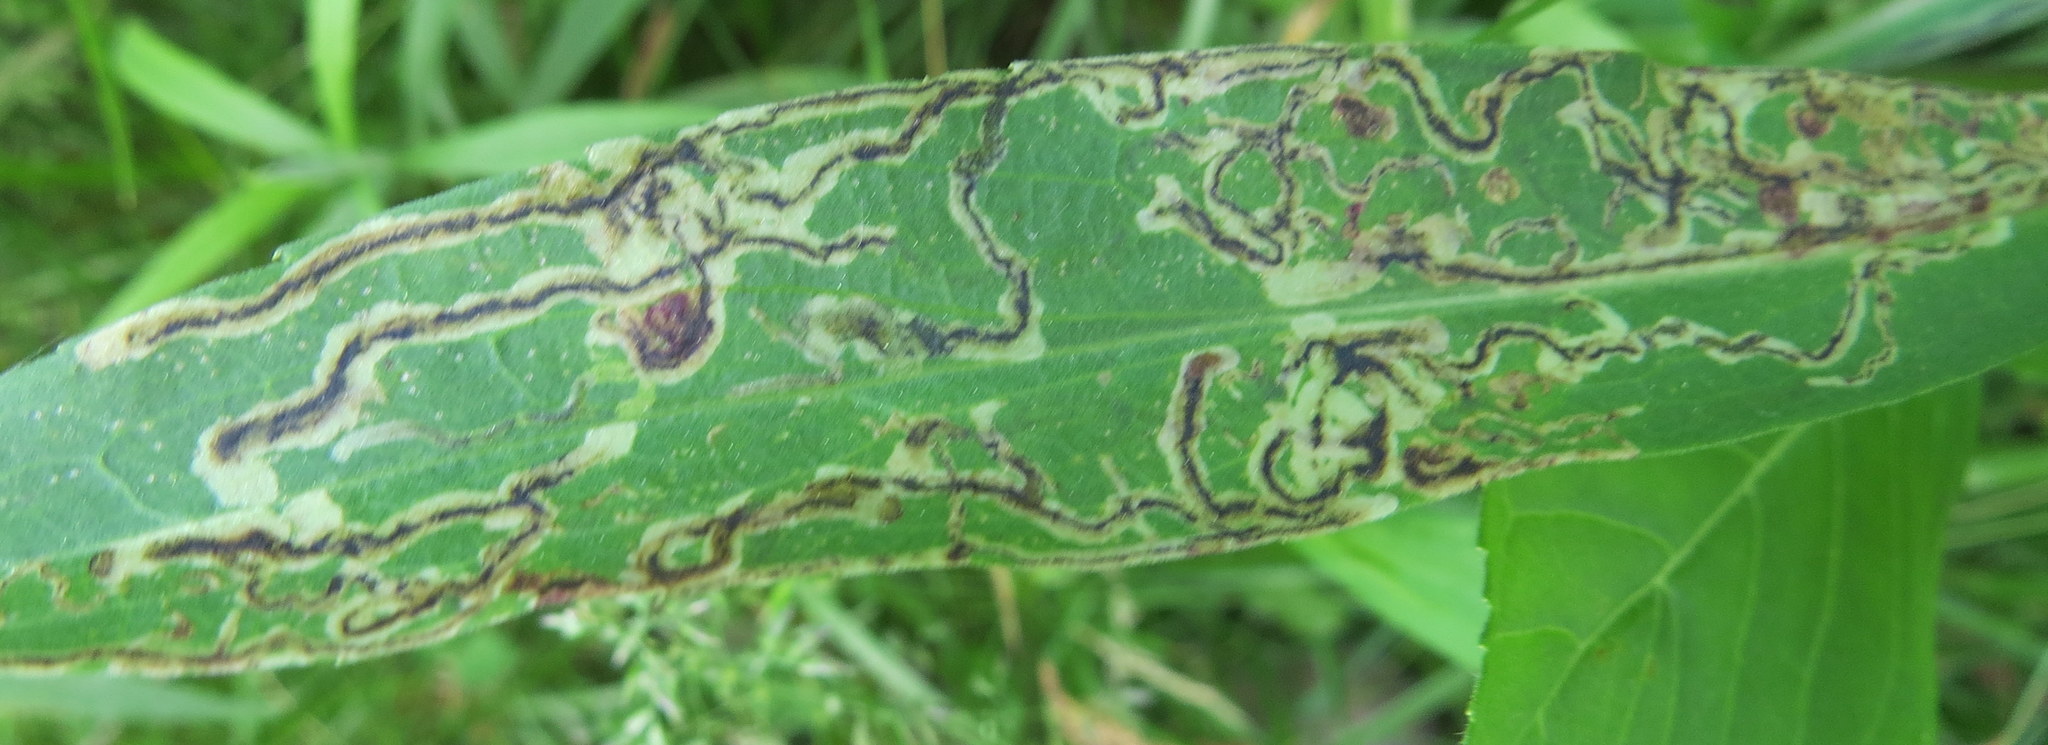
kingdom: Animalia
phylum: Arthropoda
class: Insecta
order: Diptera
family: Agromyzidae
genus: Liriomyza
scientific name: Liriomyza eupatorii
